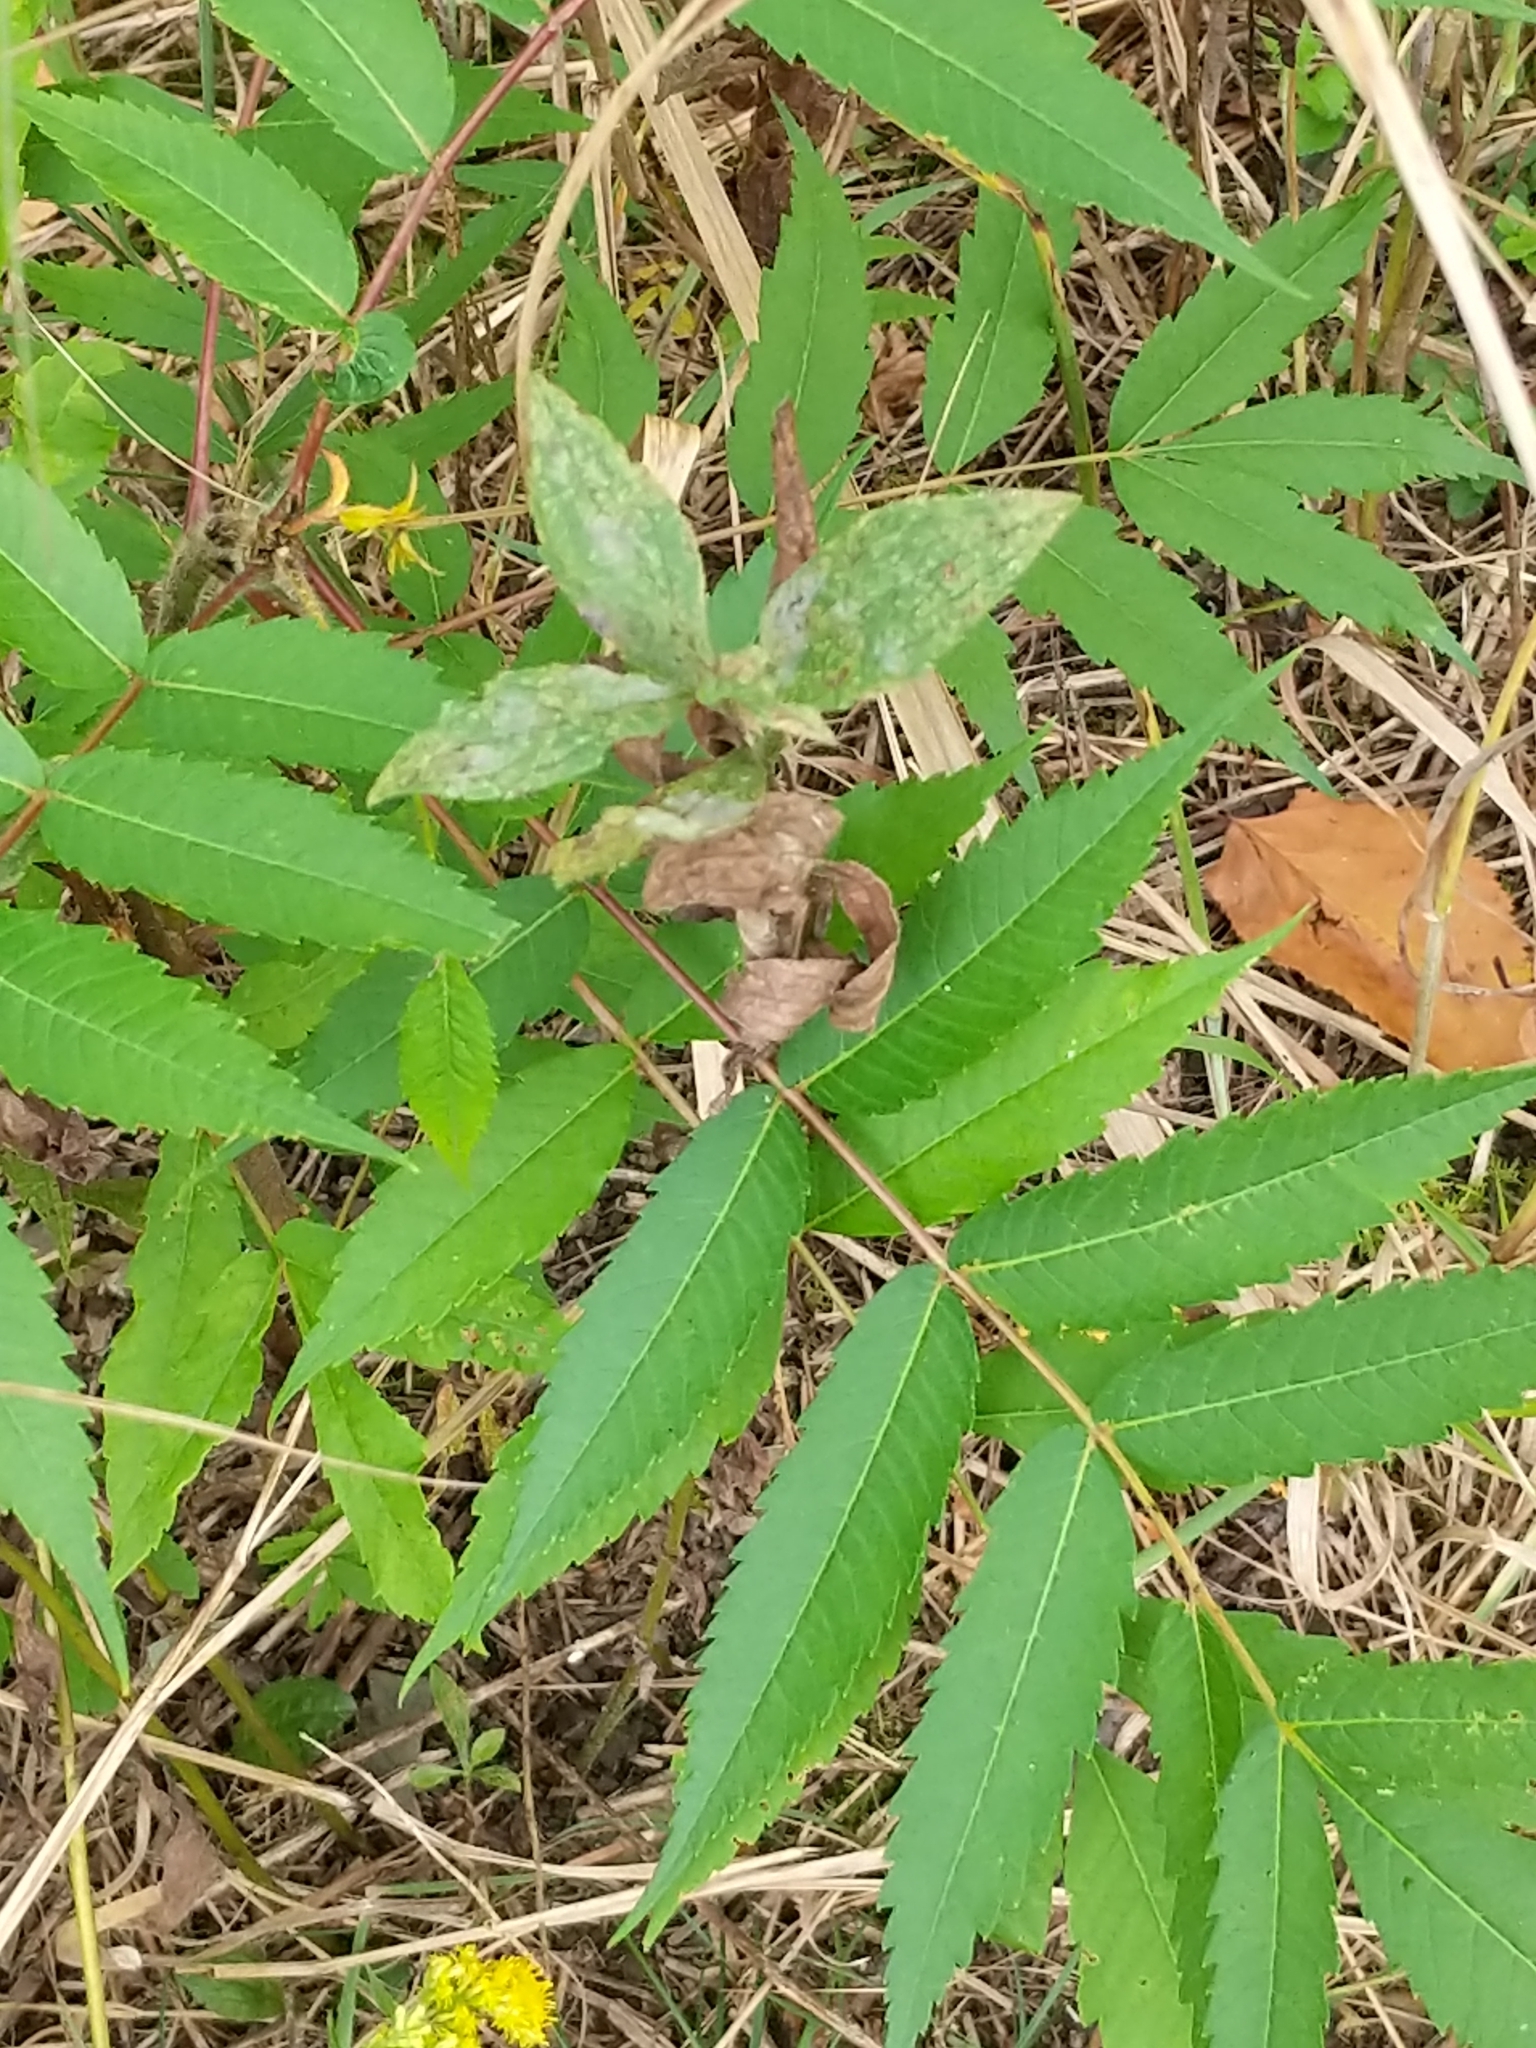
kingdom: Plantae
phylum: Tracheophyta
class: Magnoliopsida
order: Sapindales
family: Anacardiaceae
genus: Rhus
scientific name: Rhus typhina
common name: Staghorn sumac
